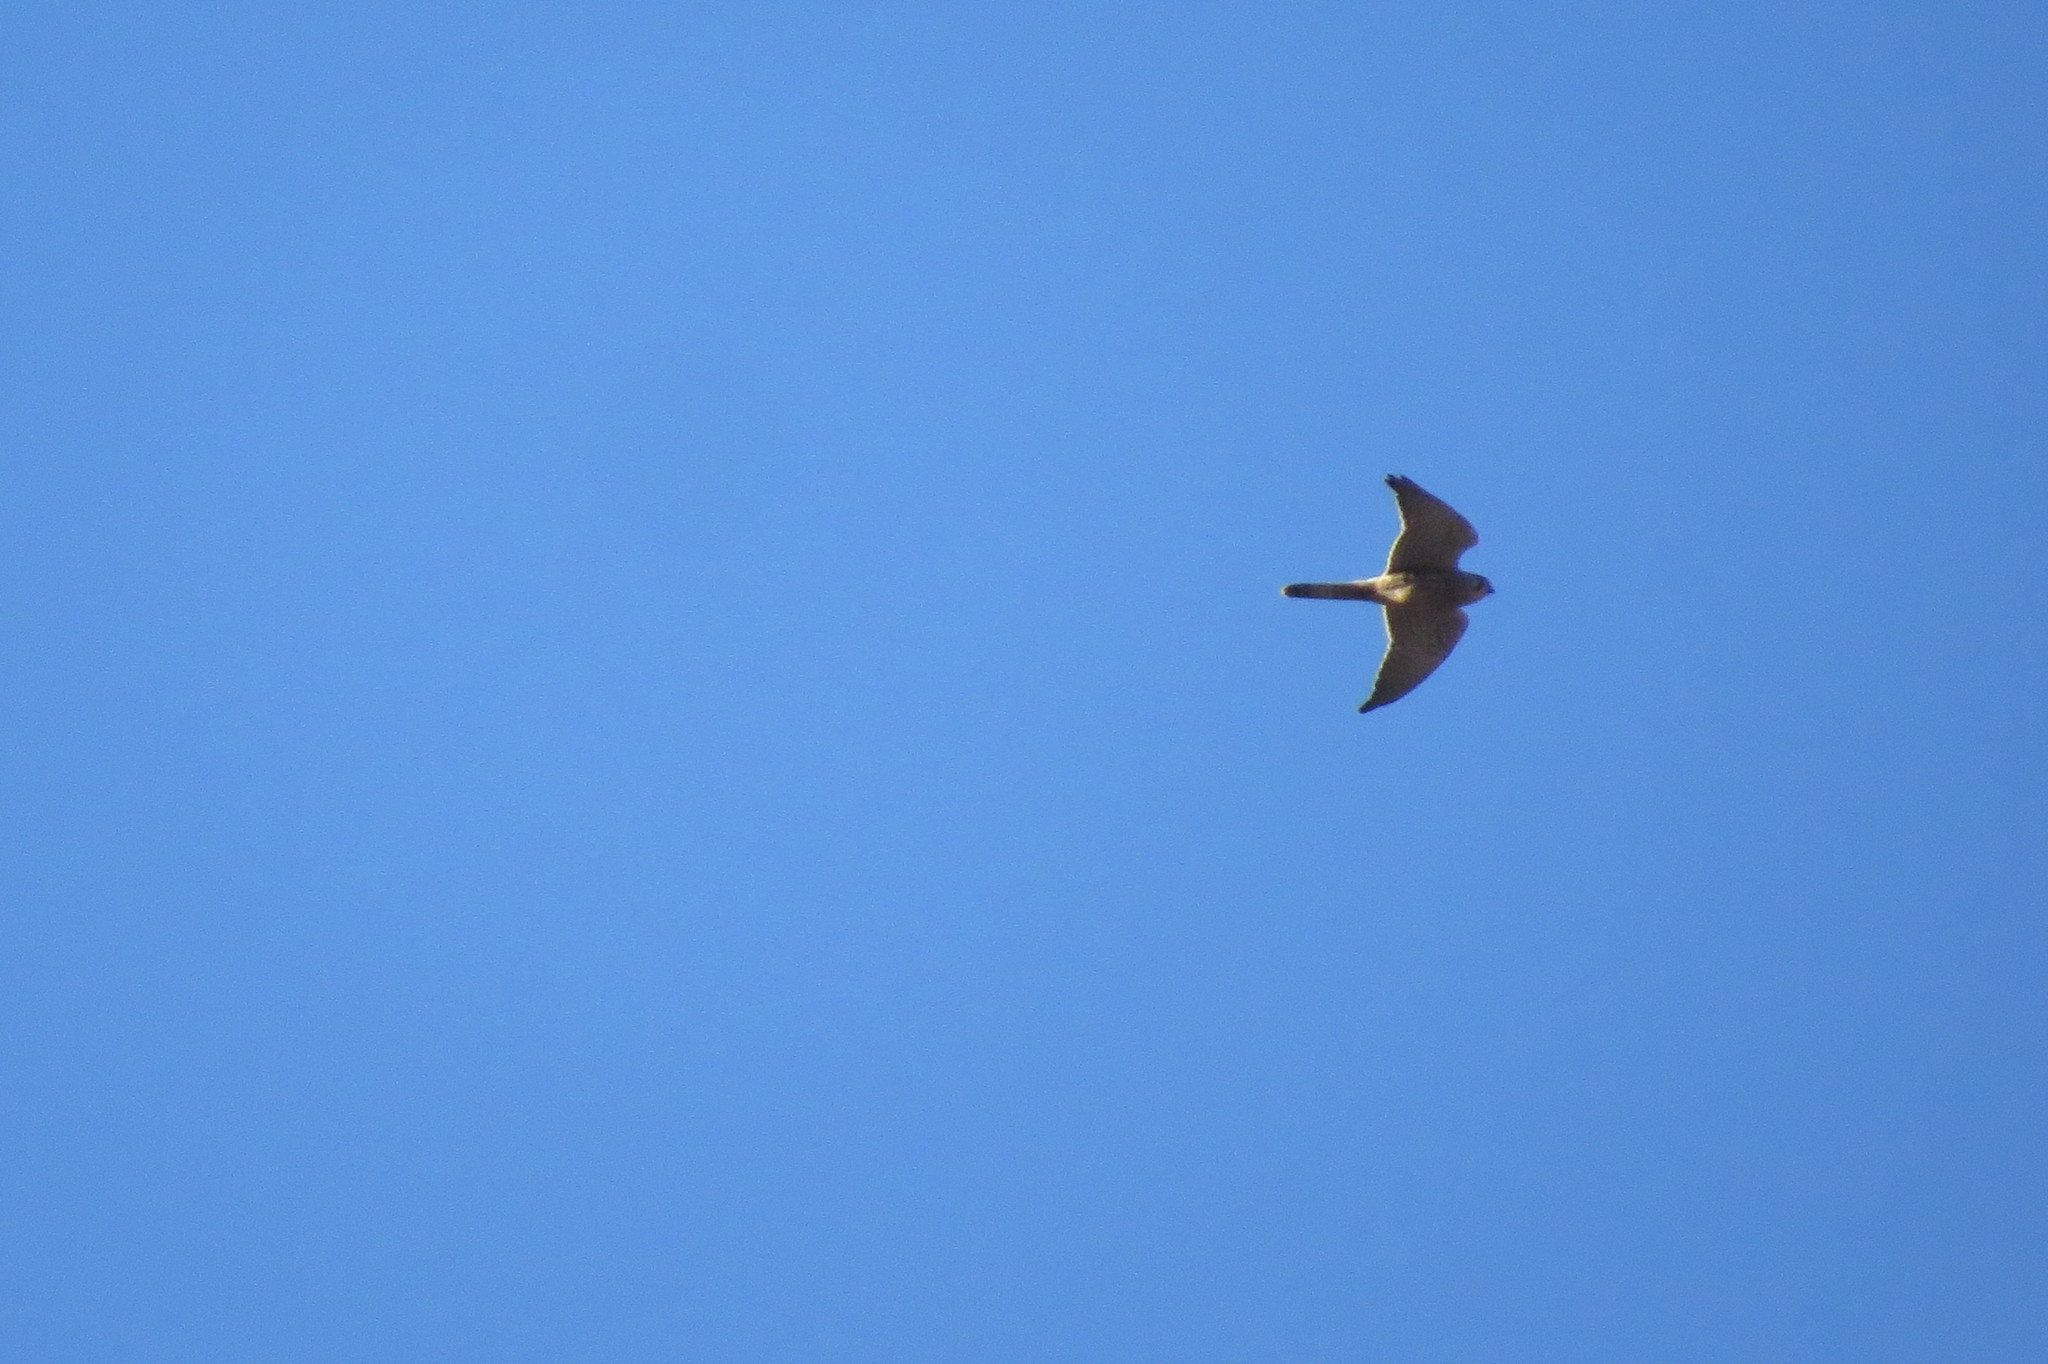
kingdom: Animalia
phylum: Chordata
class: Aves
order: Falconiformes
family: Falconidae
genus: Falco
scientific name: Falco tinnunculus
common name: Common kestrel
